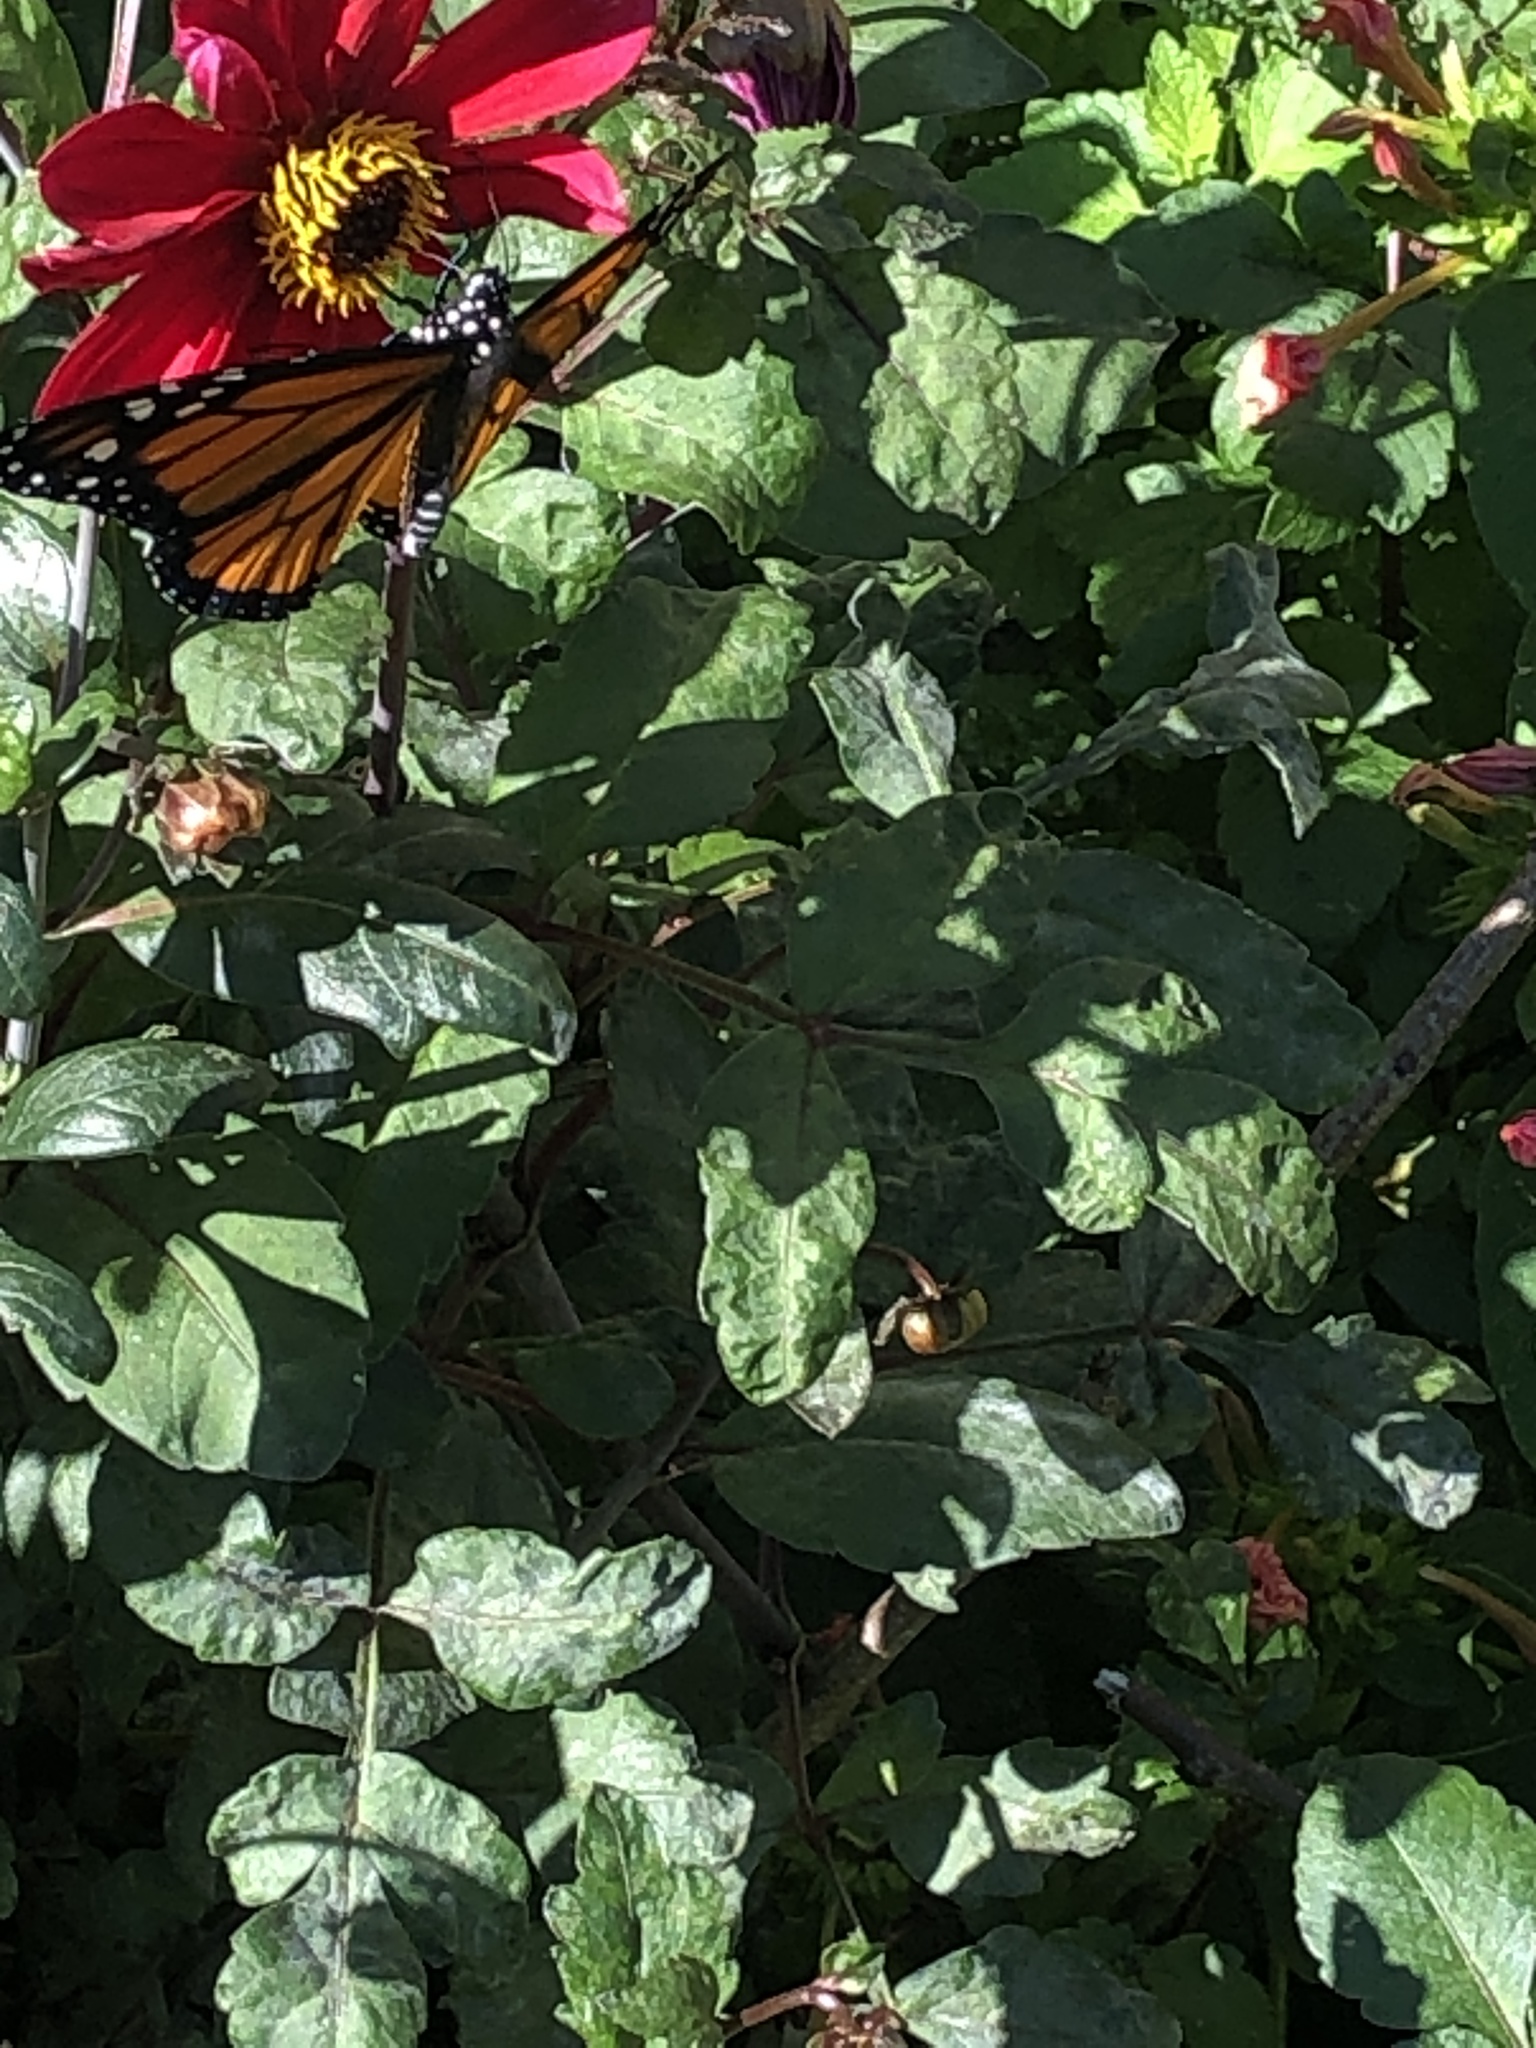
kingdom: Animalia
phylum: Arthropoda
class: Insecta
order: Lepidoptera
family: Nymphalidae
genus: Danaus
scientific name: Danaus plexippus
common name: Monarch
